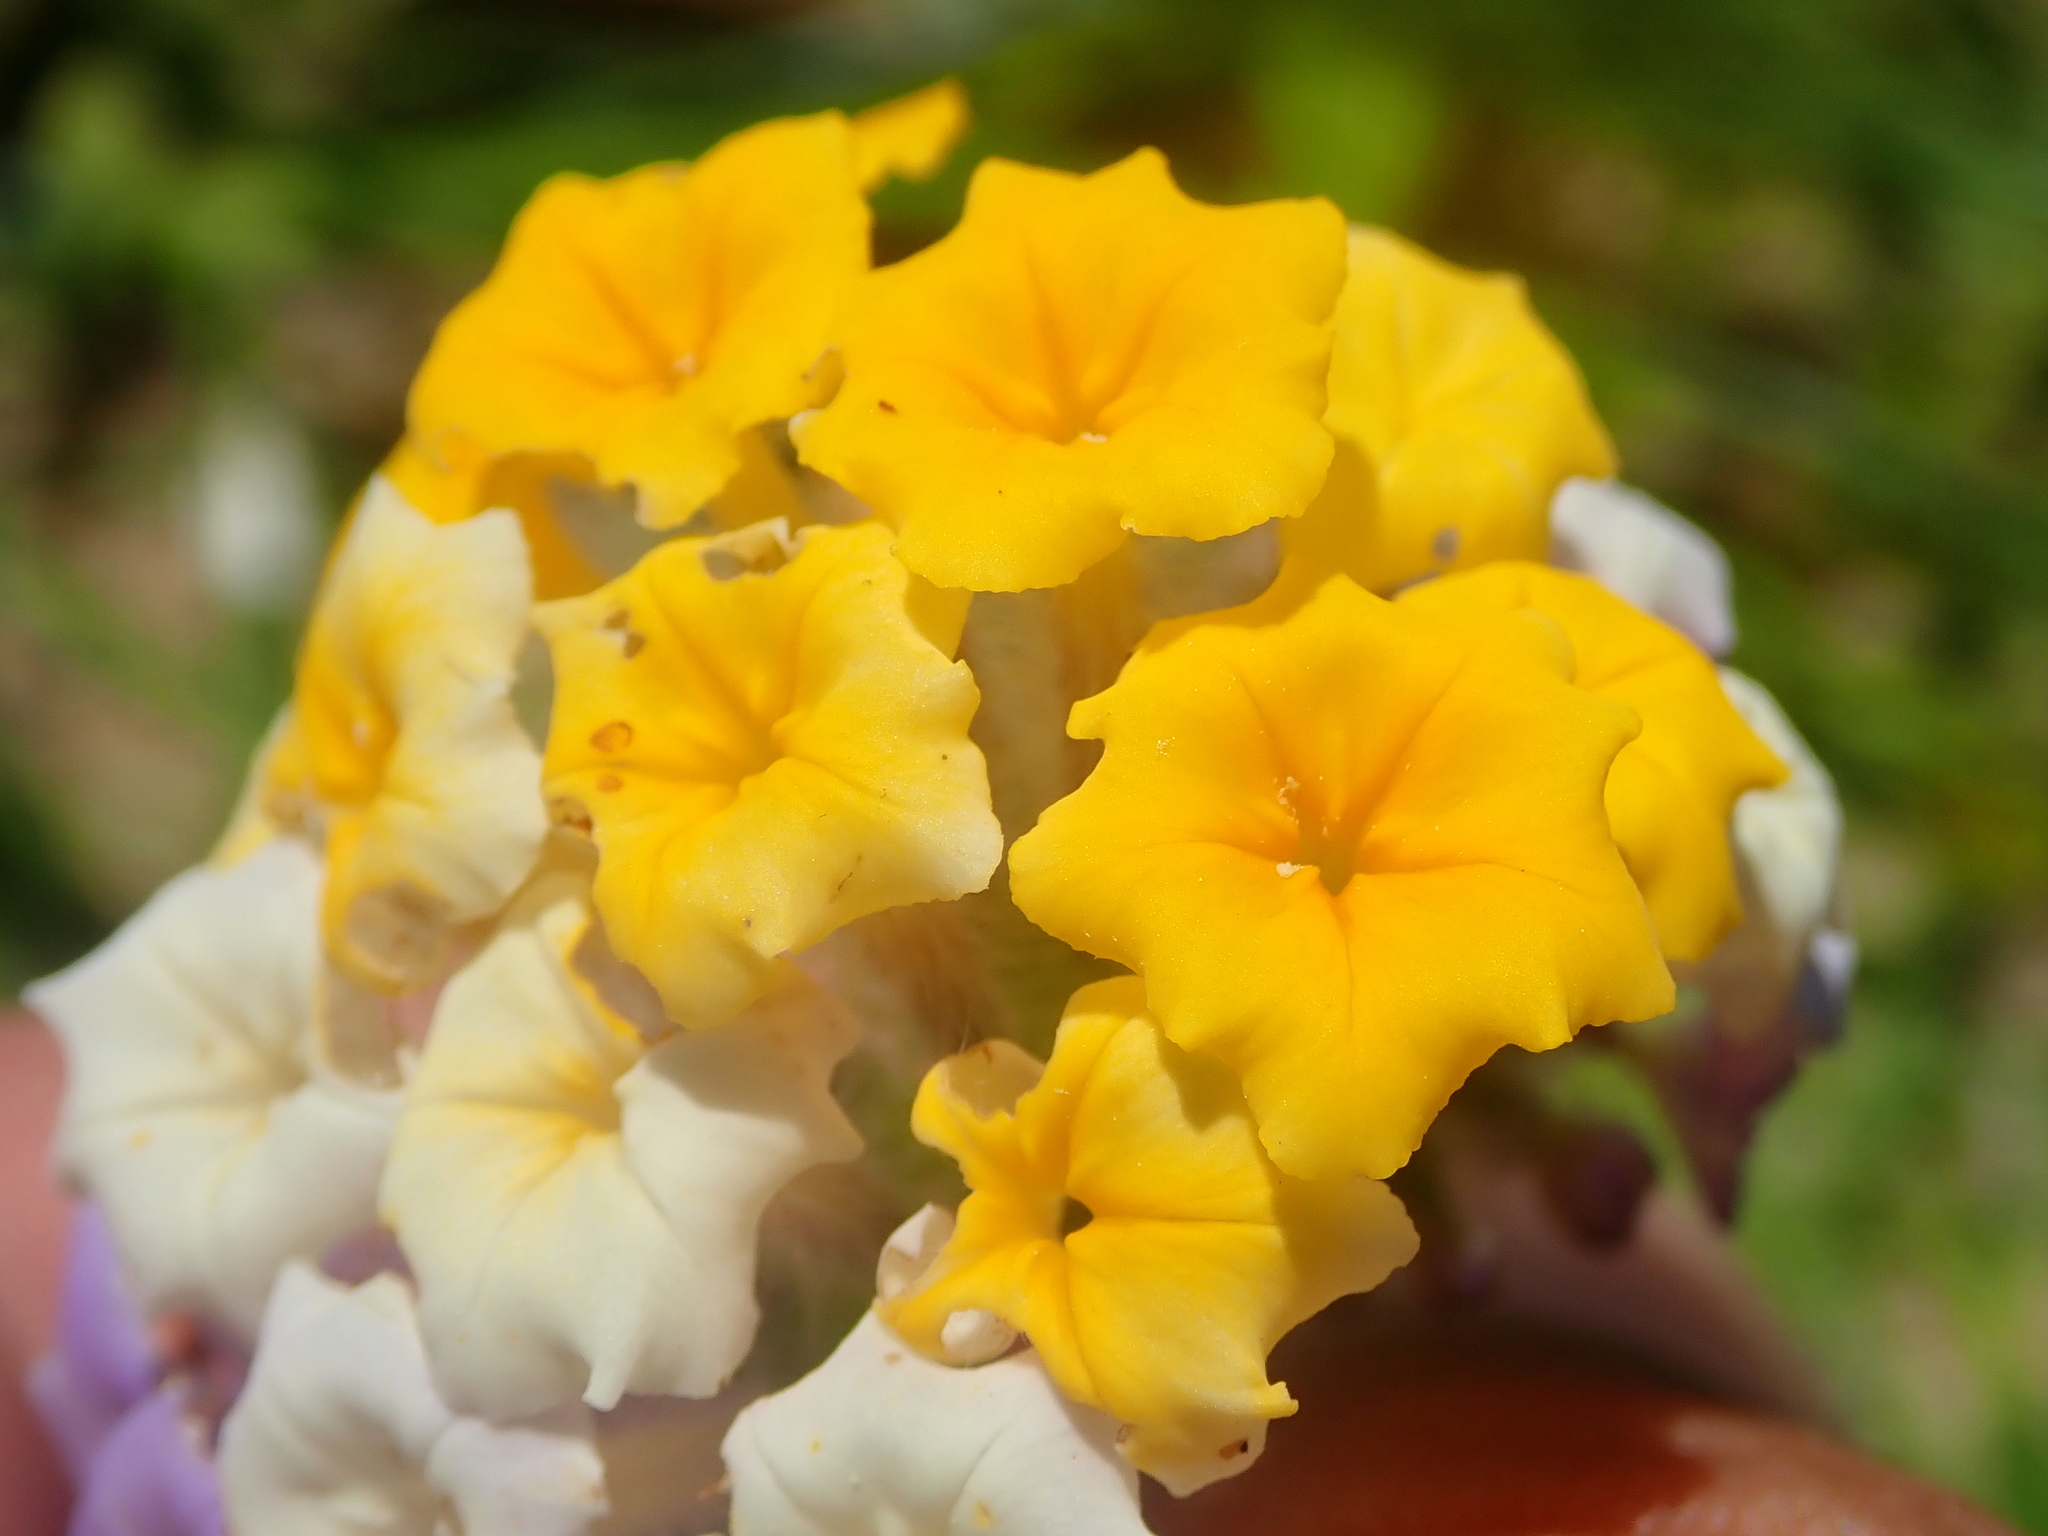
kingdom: Plantae
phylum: Tracheophyta
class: Magnoliopsida
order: Boraginales
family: Heliotropiaceae
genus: Heliotropium
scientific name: Heliotropium elongatum
